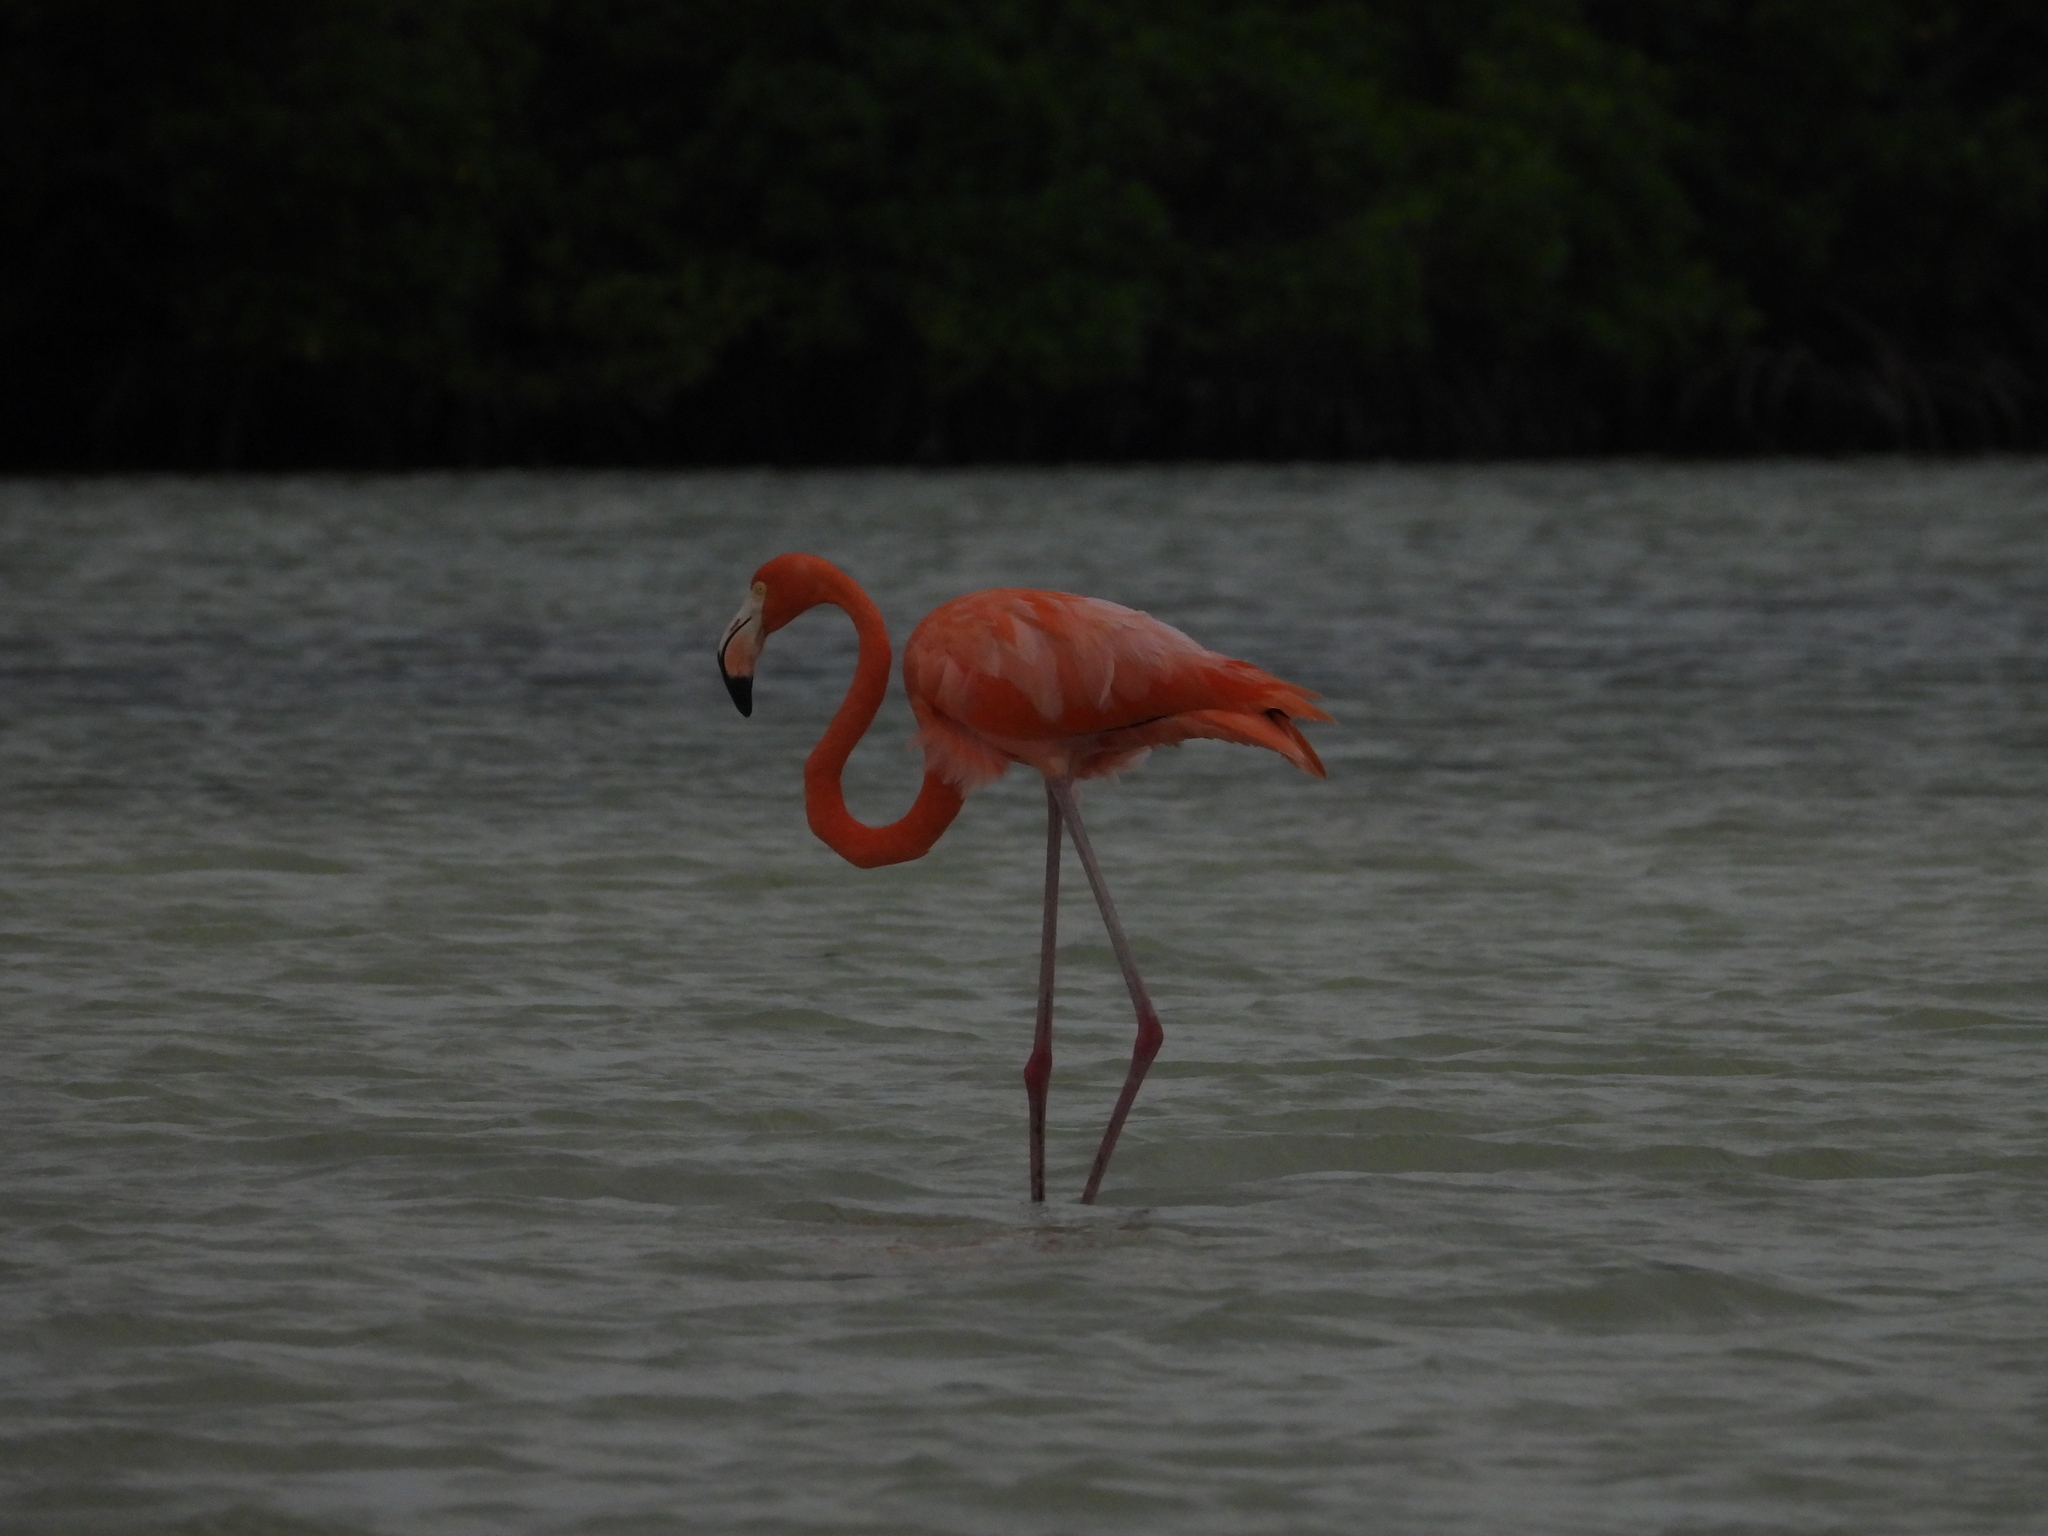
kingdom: Animalia
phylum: Chordata
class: Aves
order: Phoenicopteriformes
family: Phoenicopteridae
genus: Phoenicopterus
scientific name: Phoenicopterus ruber
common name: American flamingo
